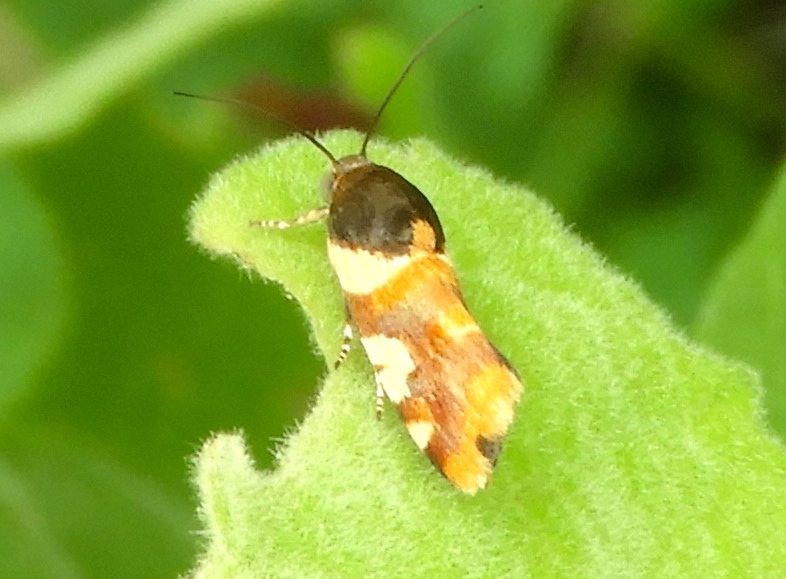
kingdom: Animalia
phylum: Arthropoda
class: Insecta
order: Lepidoptera
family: Noctuidae
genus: Acontia
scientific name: Acontia dama
